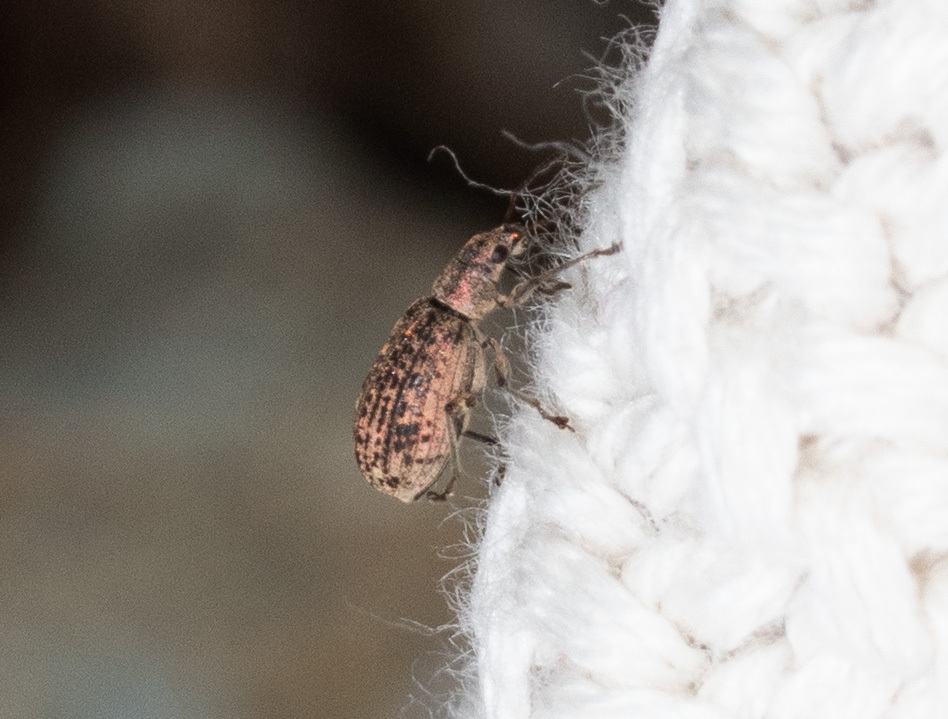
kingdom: Animalia
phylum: Arthropoda
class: Insecta
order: Coleoptera
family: Curculionidae
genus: Polydrusus
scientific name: Polydrusus cervinus
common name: Weevil
